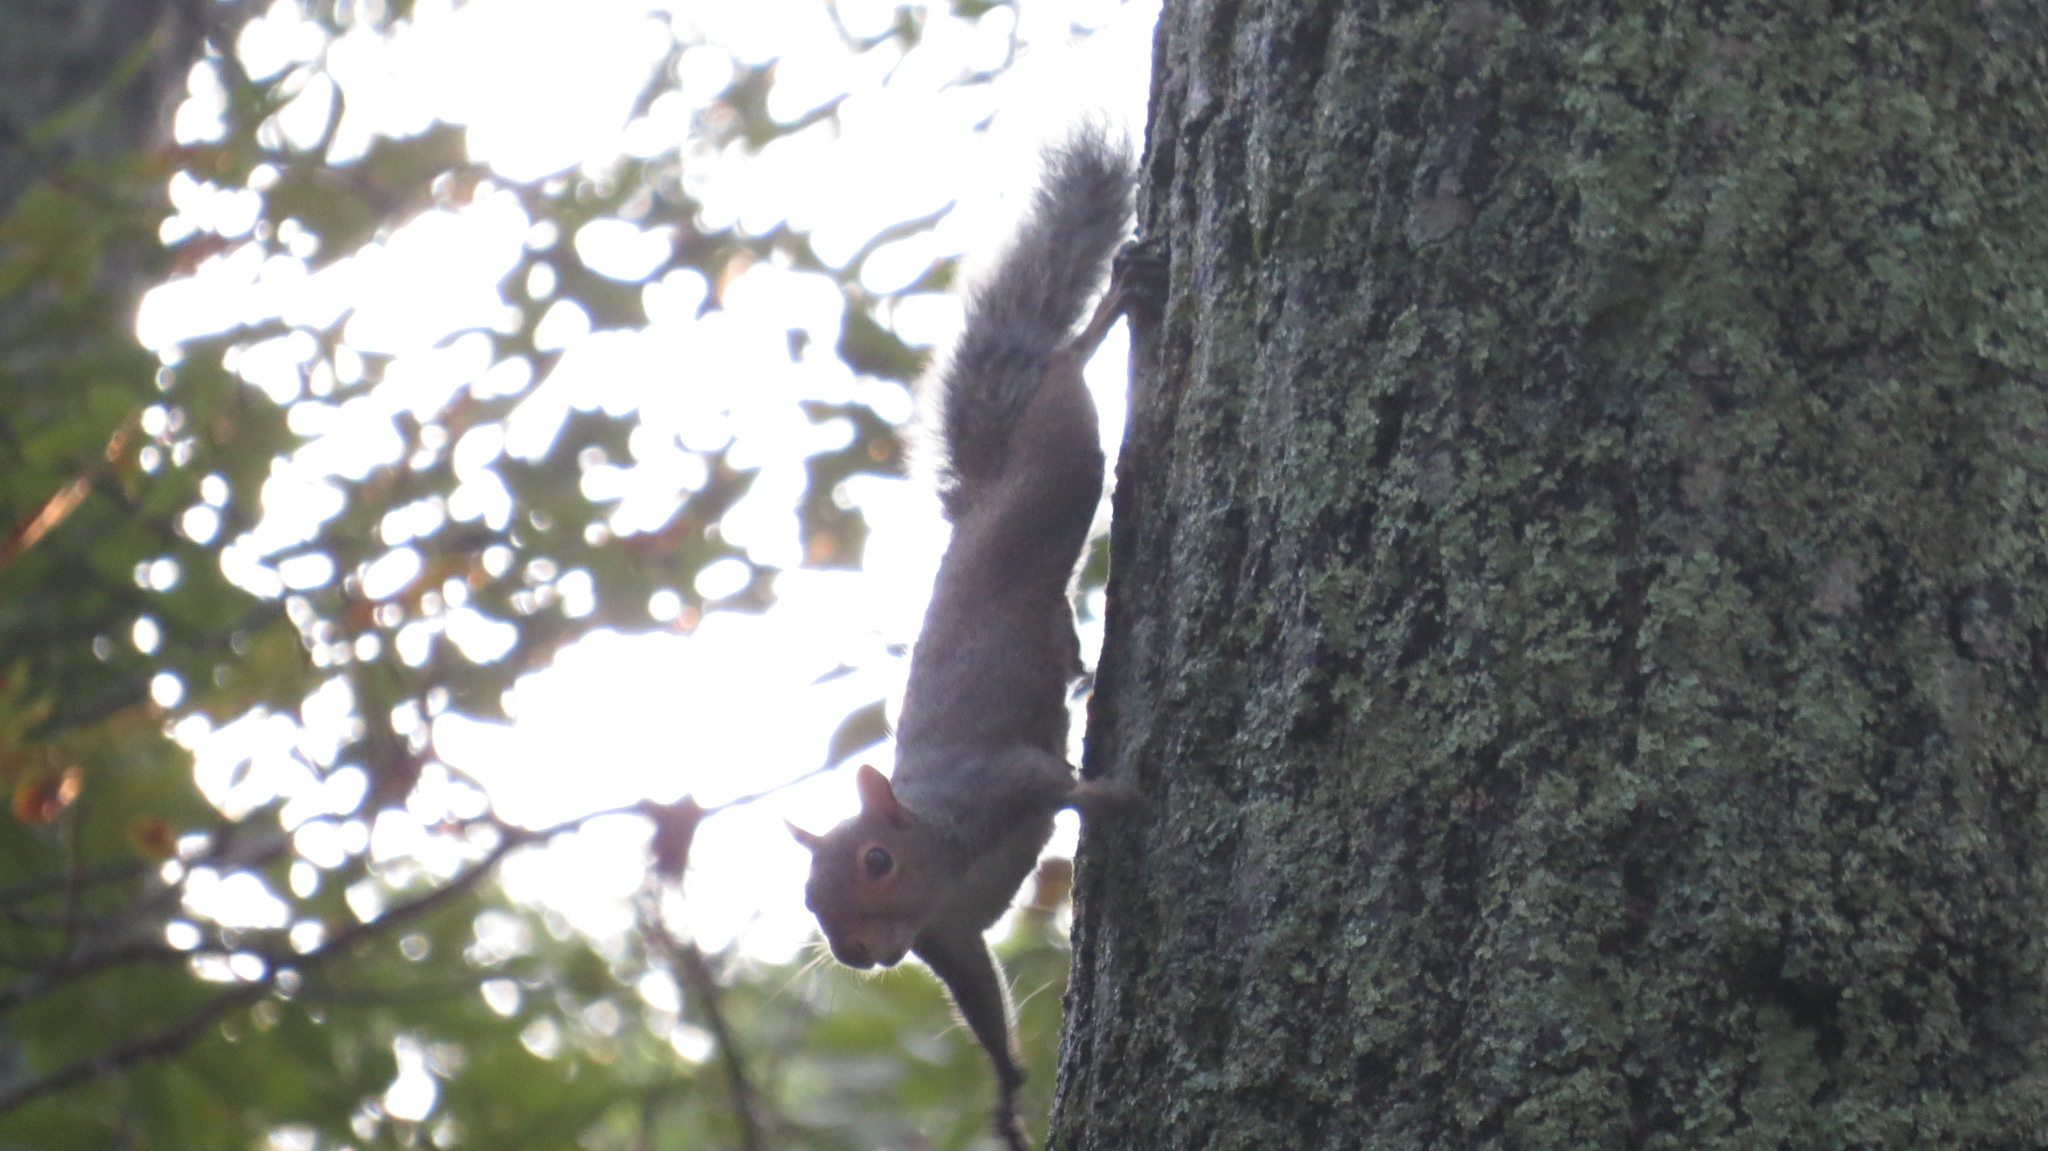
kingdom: Animalia
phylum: Chordata
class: Mammalia
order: Rodentia
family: Sciuridae
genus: Sciurus
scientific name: Sciurus carolinensis
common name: Eastern gray squirrel
